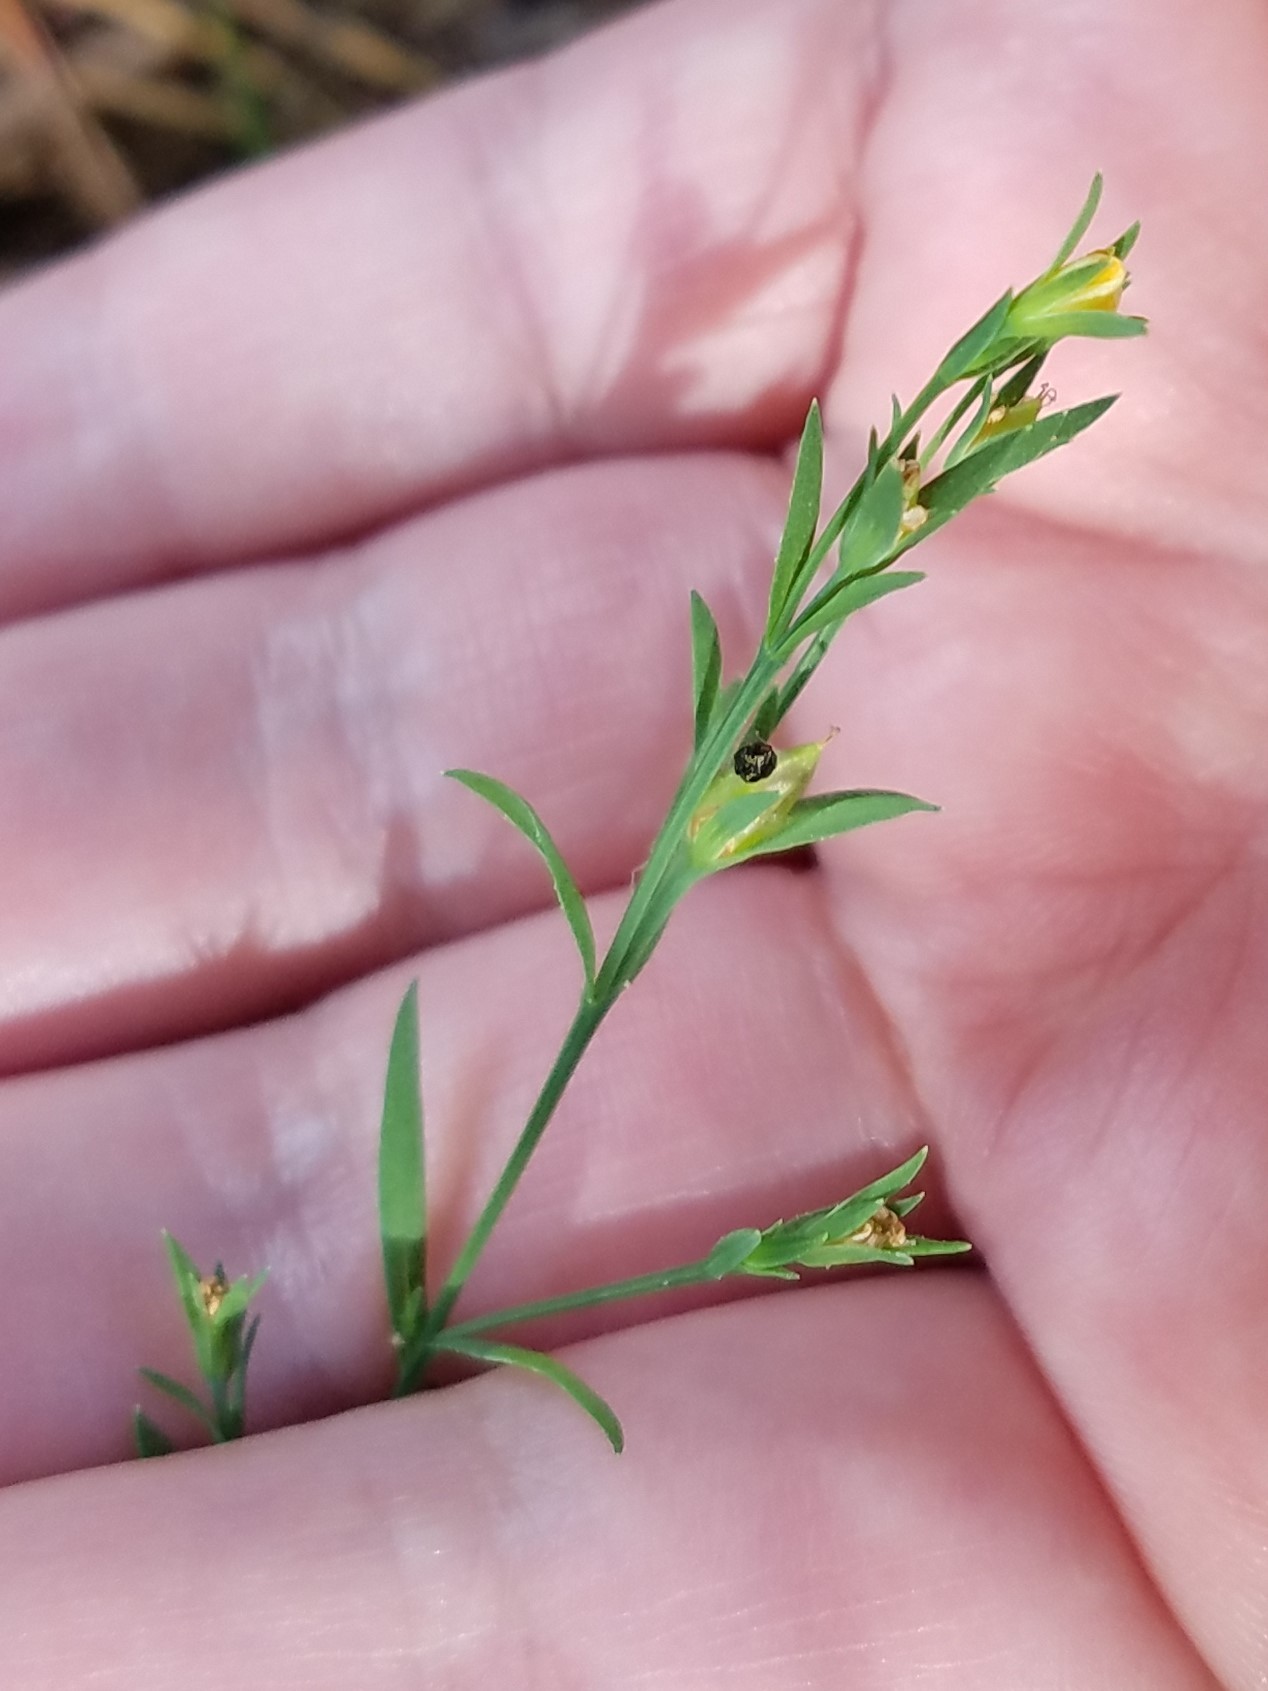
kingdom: Plantae
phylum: Tracheophyta
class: Magnoliopsida
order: Malpighiales
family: Hypericaceae
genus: Hypericum
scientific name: Hypericum drummondii
